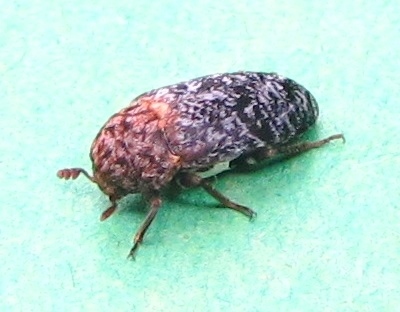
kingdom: Animalia
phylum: Arthropoda
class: Insecta
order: Coleoptera
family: Dermestidae
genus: Dermestes
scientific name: Dermestes undulatus
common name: Wavy carpet beetle
